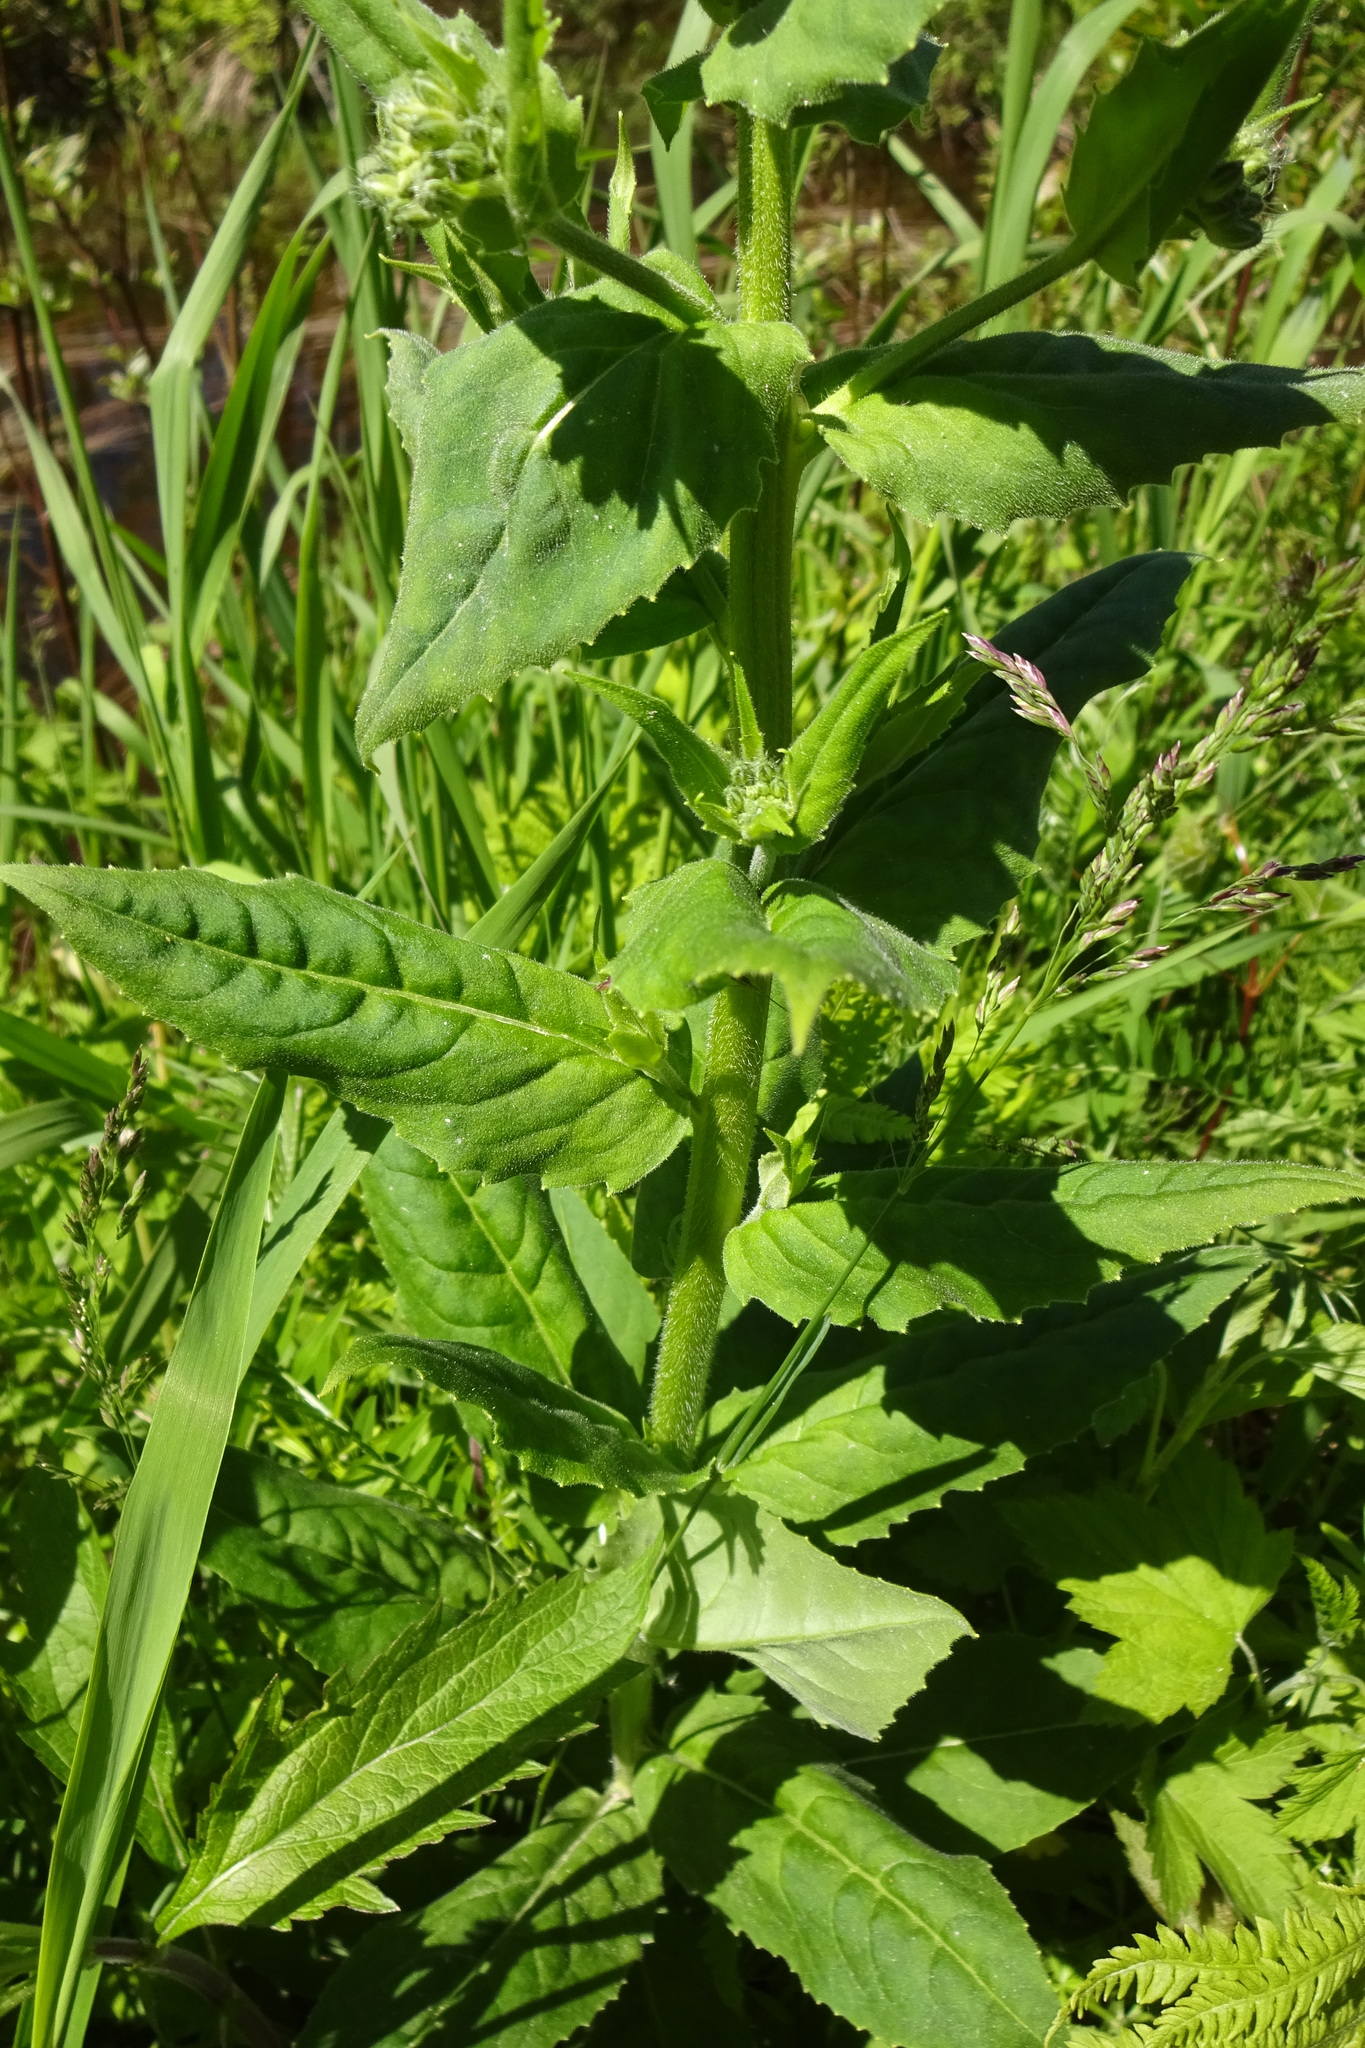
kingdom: Plantae
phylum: Tracheophyta
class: Magnoliopsida
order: Brassicales
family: Brassicaceae
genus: Hesperis
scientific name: Hesperis matronalis
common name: Dame's-violet
